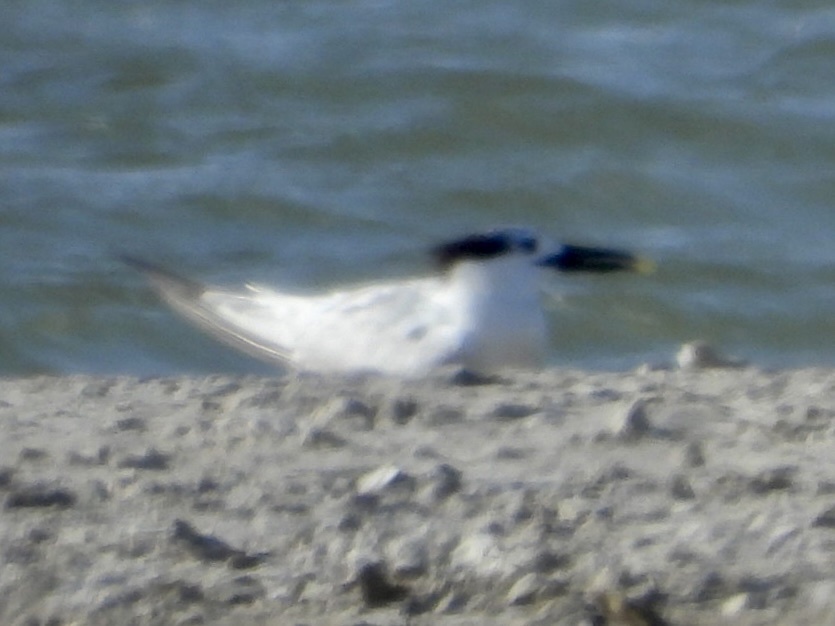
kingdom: Animalia
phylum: Chordata
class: Aves
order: Charadriiformes
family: Laridae
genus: Thalasseus
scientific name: Thalasseus sandvicensis
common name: Sandwich tern
